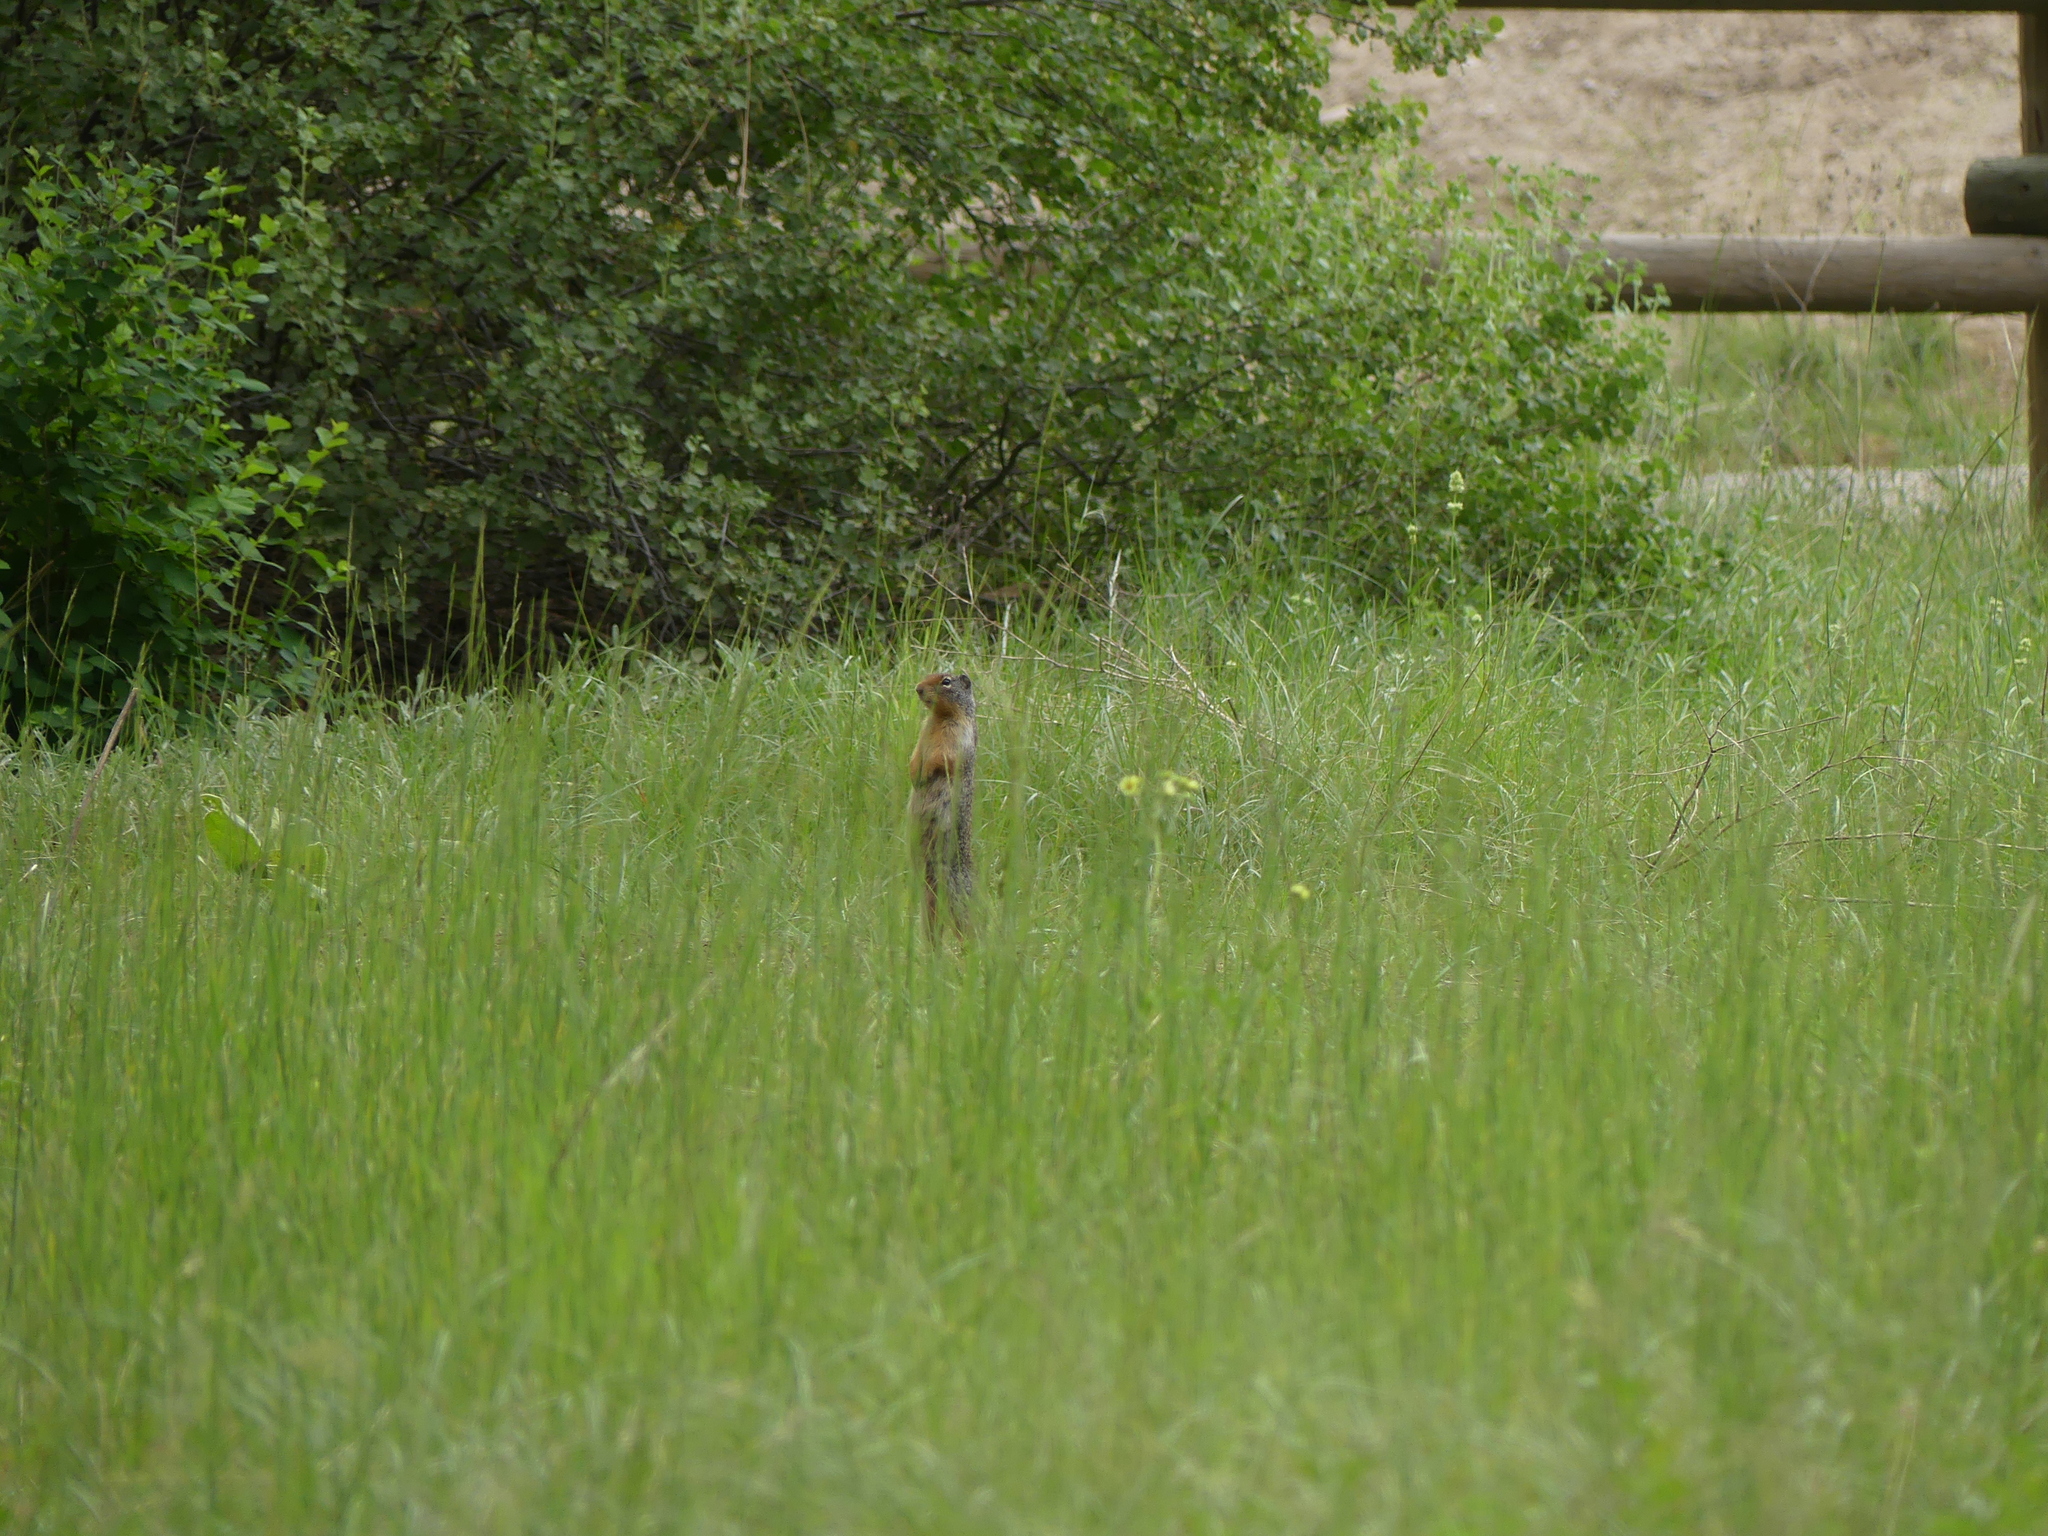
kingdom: Animalia
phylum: Chordata
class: Mammalia
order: Rodentia
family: Sciuridae
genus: Urocitellus
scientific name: Urocitellus columbianus
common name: Columbian ground squirrel
